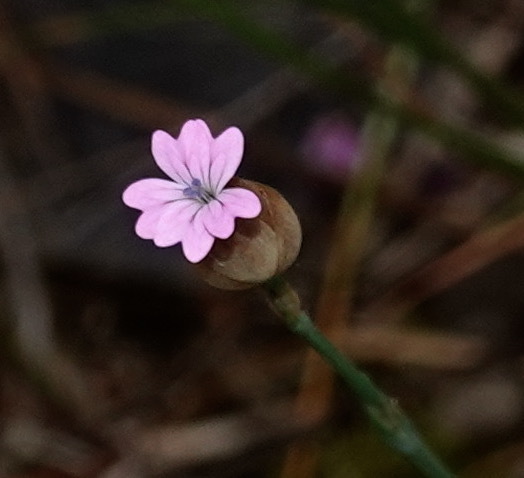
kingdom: Plantae
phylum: Tracheophyta
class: Magnoliopsida
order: Caryophyllales
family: Caryophyllaceae
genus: Petrorhagia
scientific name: Petrorhagia dubia
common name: Hairypink
